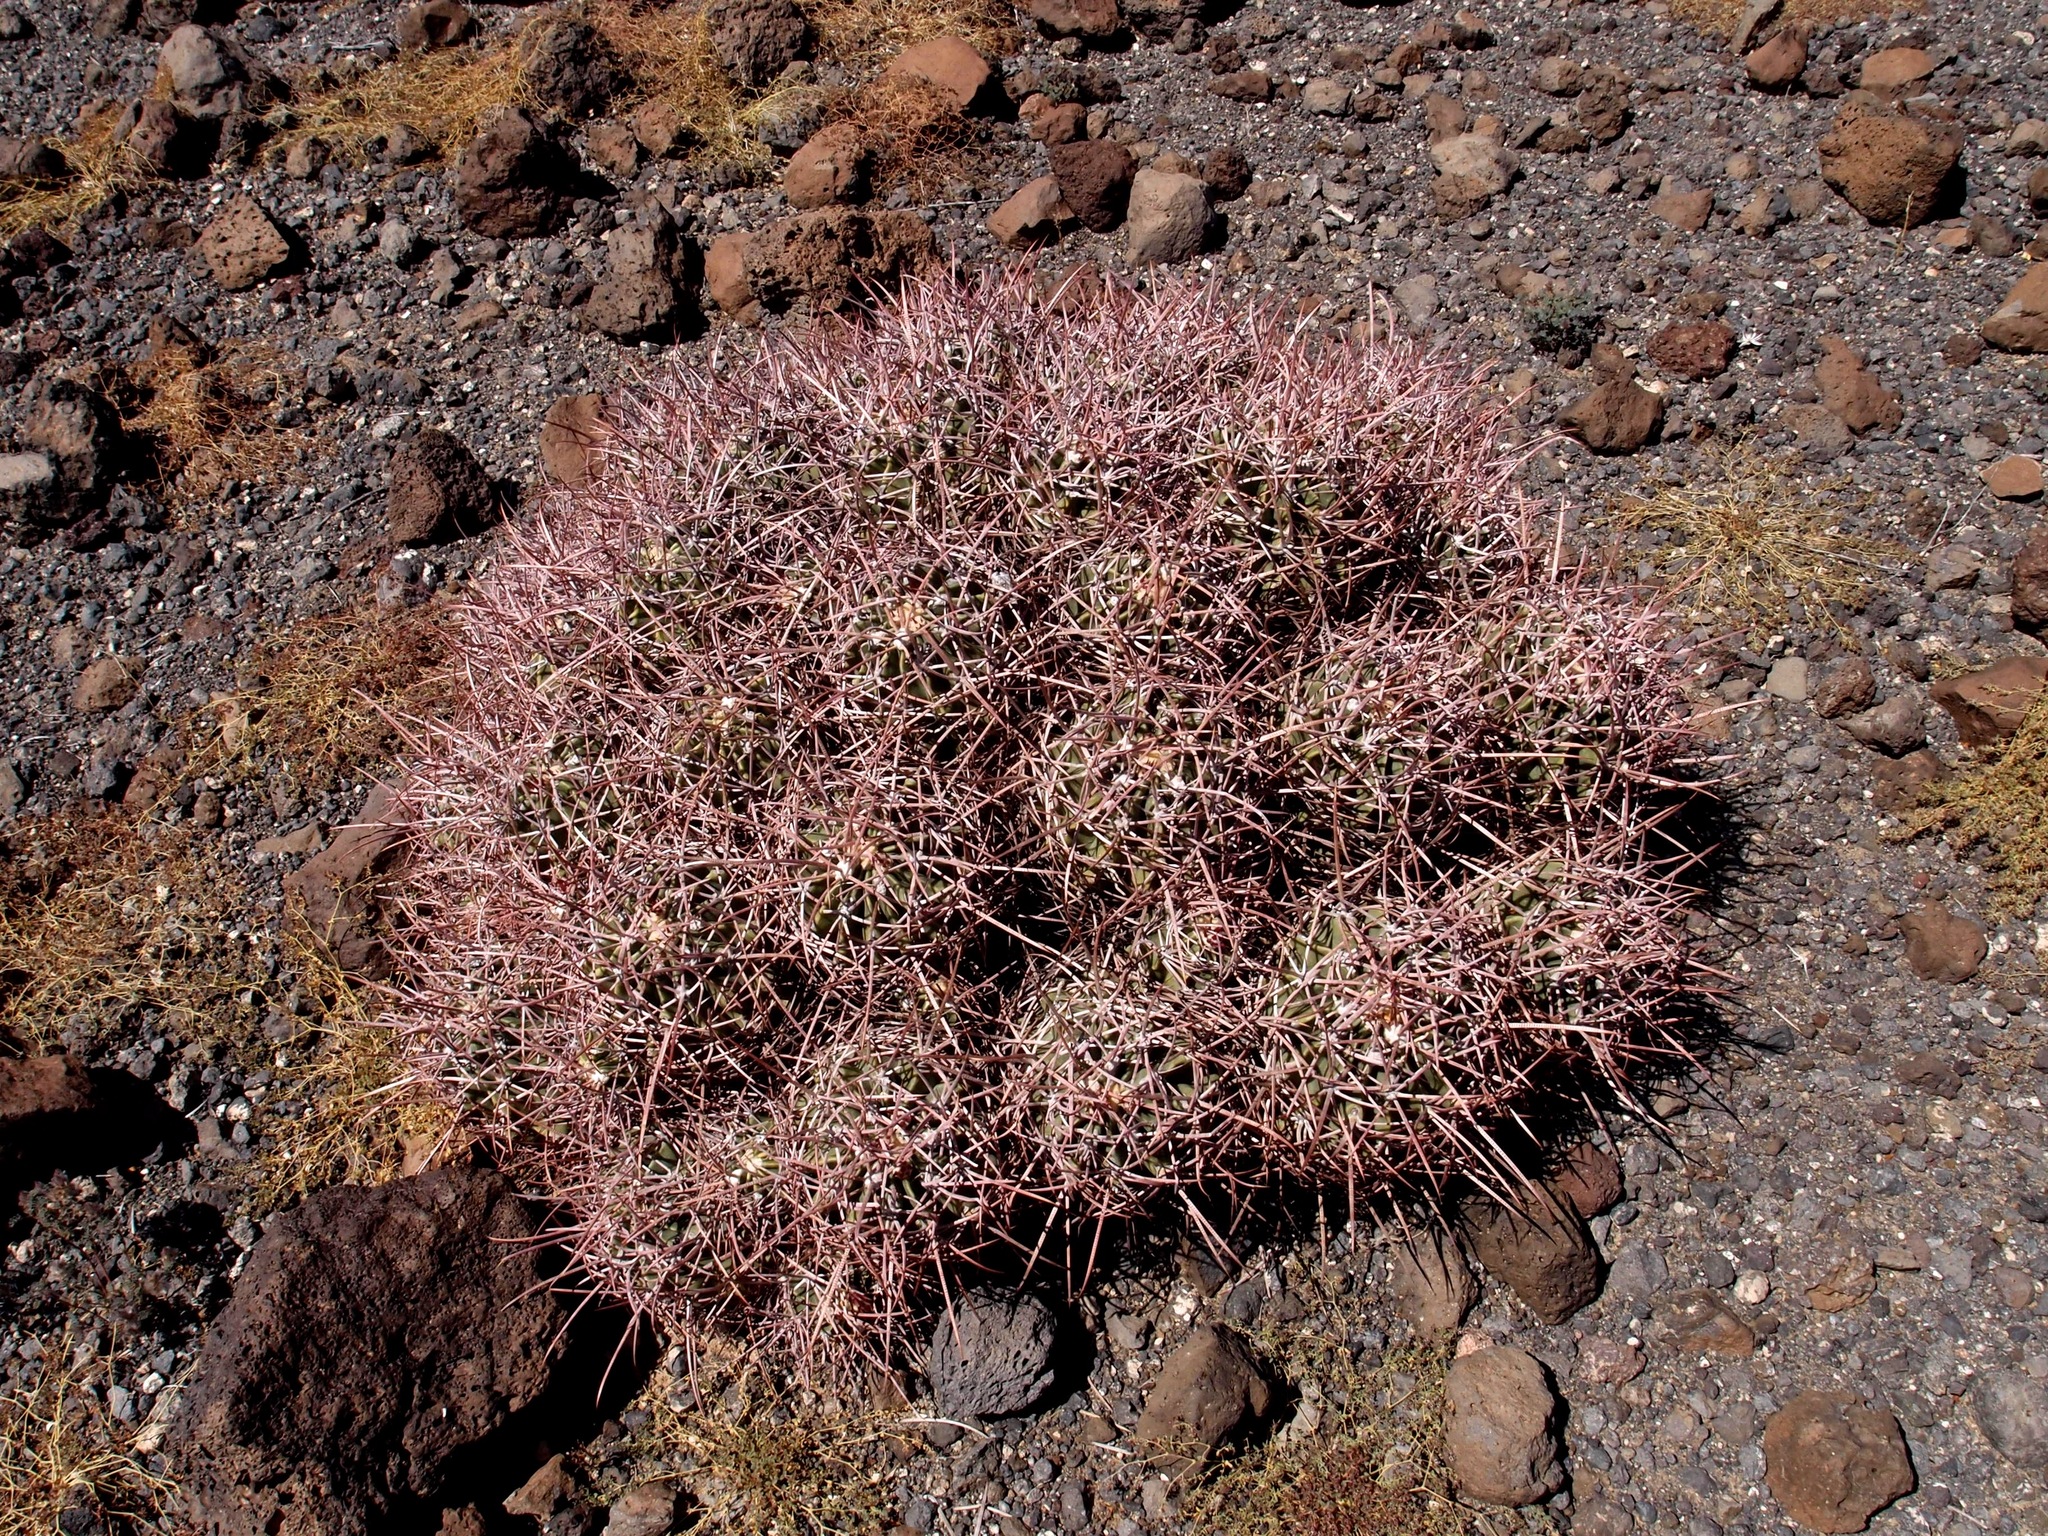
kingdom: Plantae
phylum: Tracheophyta
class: Magnoliopsida
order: Caryophyllales
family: Cactaceae
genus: Echinocactus
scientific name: Echinocactus polycephalus
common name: Cottontop cactus
